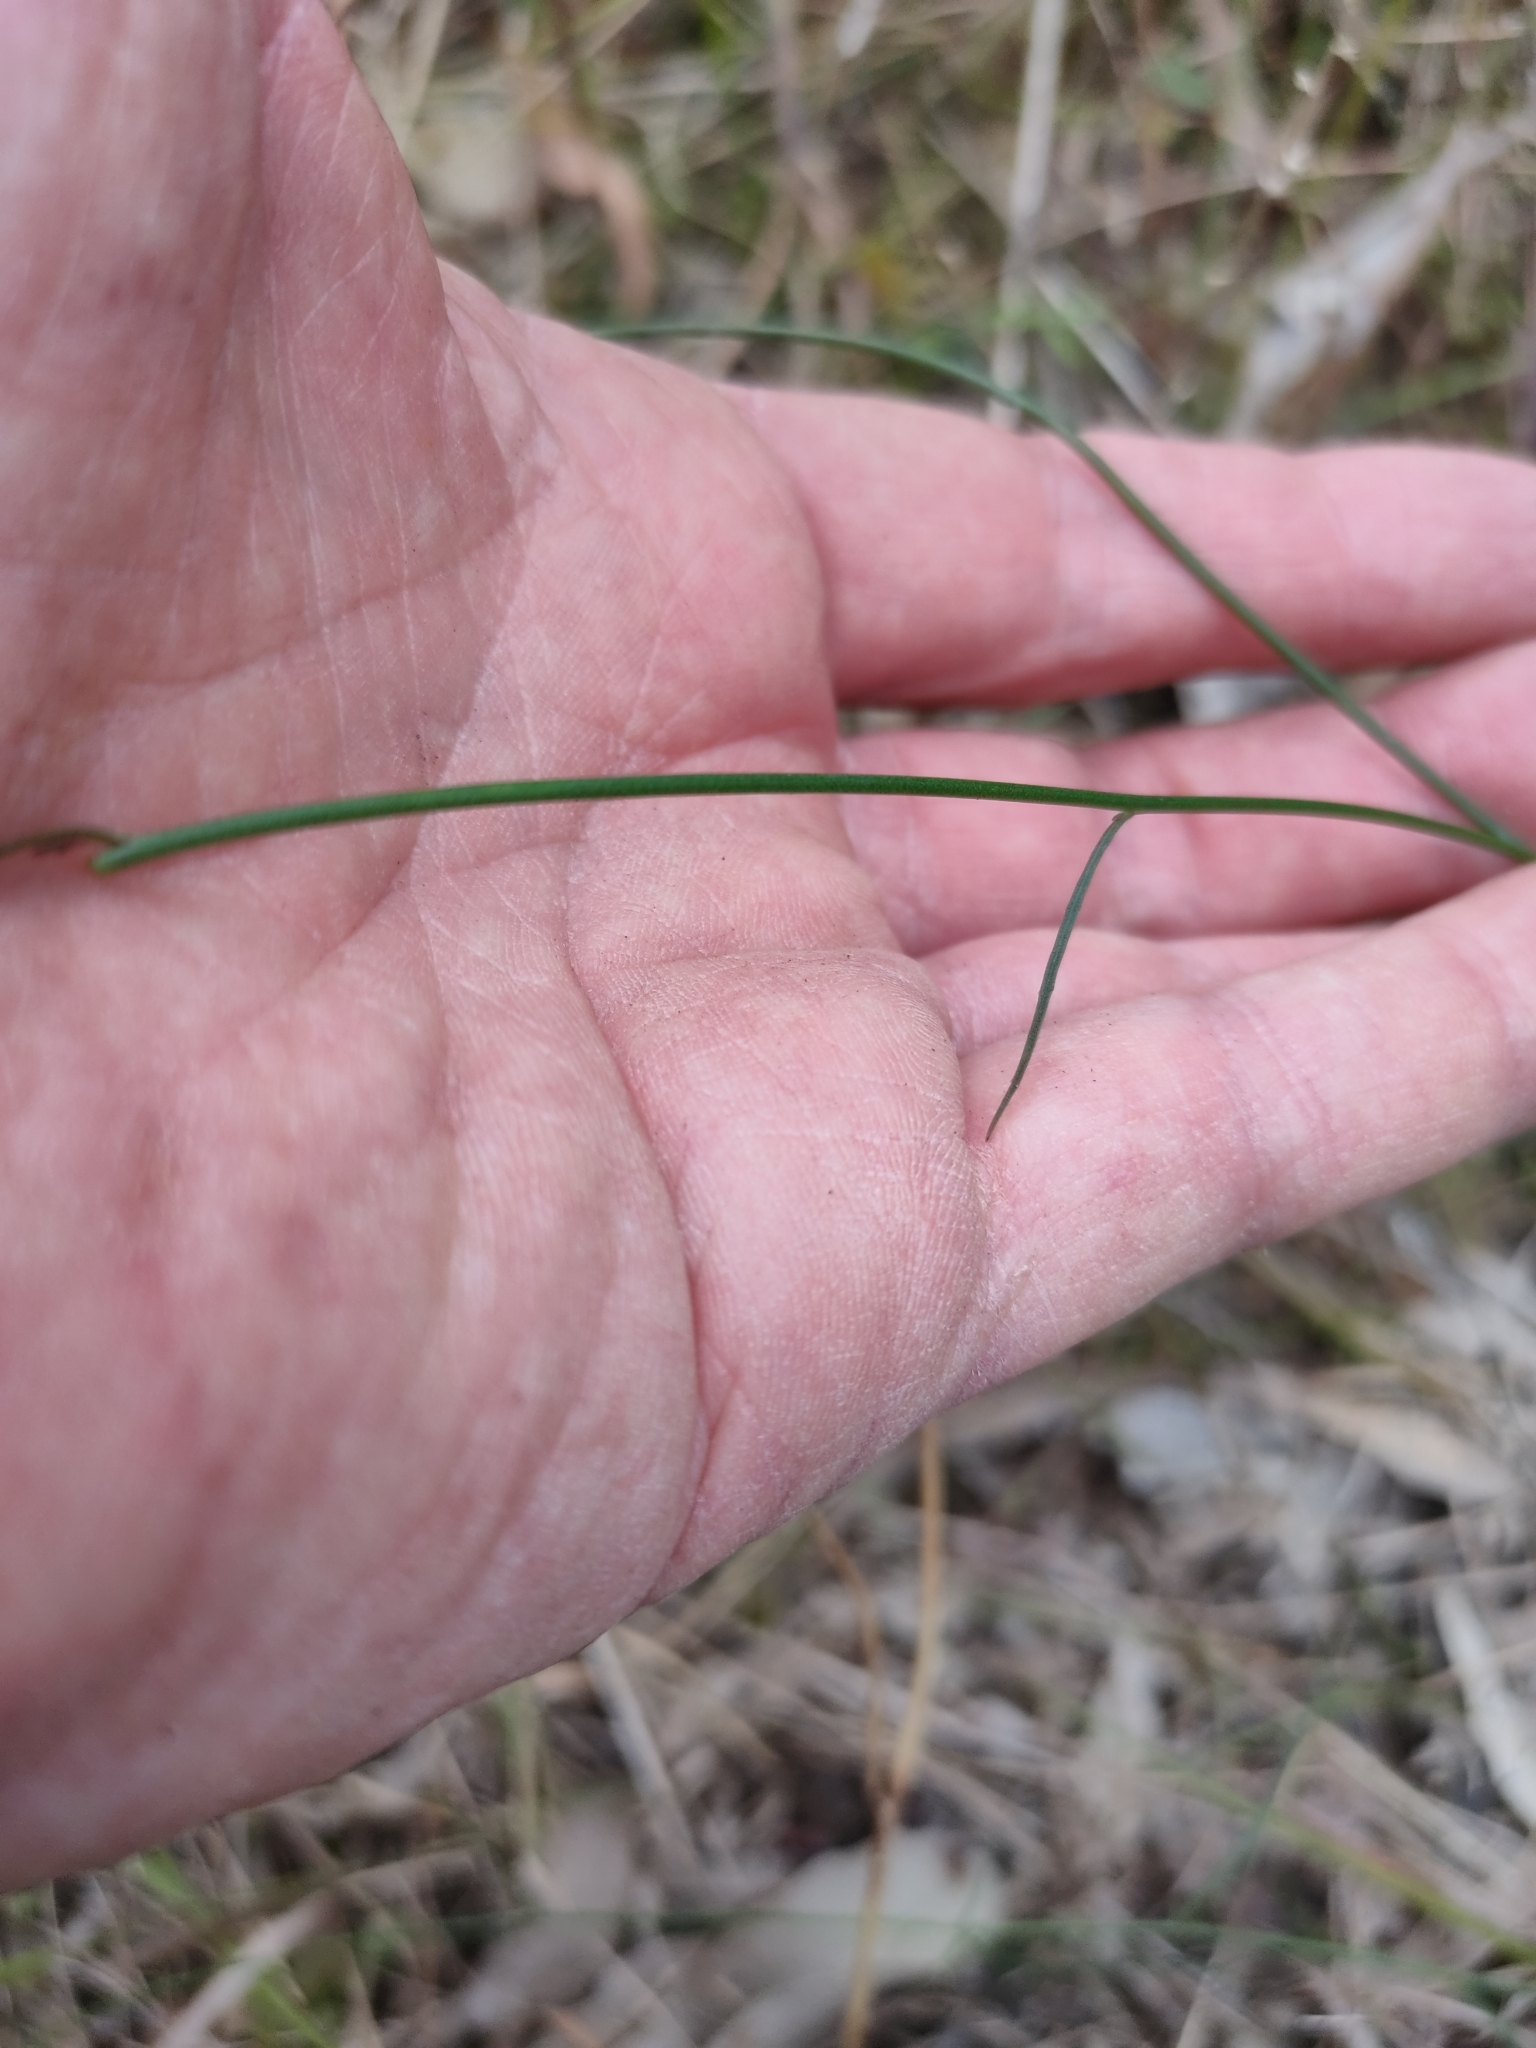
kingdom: Plantae
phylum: Tracheophyta
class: Magnoliopsida
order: Asterales
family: Campanulaceae
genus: Wahlenbergia
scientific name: Wahlenbergia gracilis
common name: Harebell
